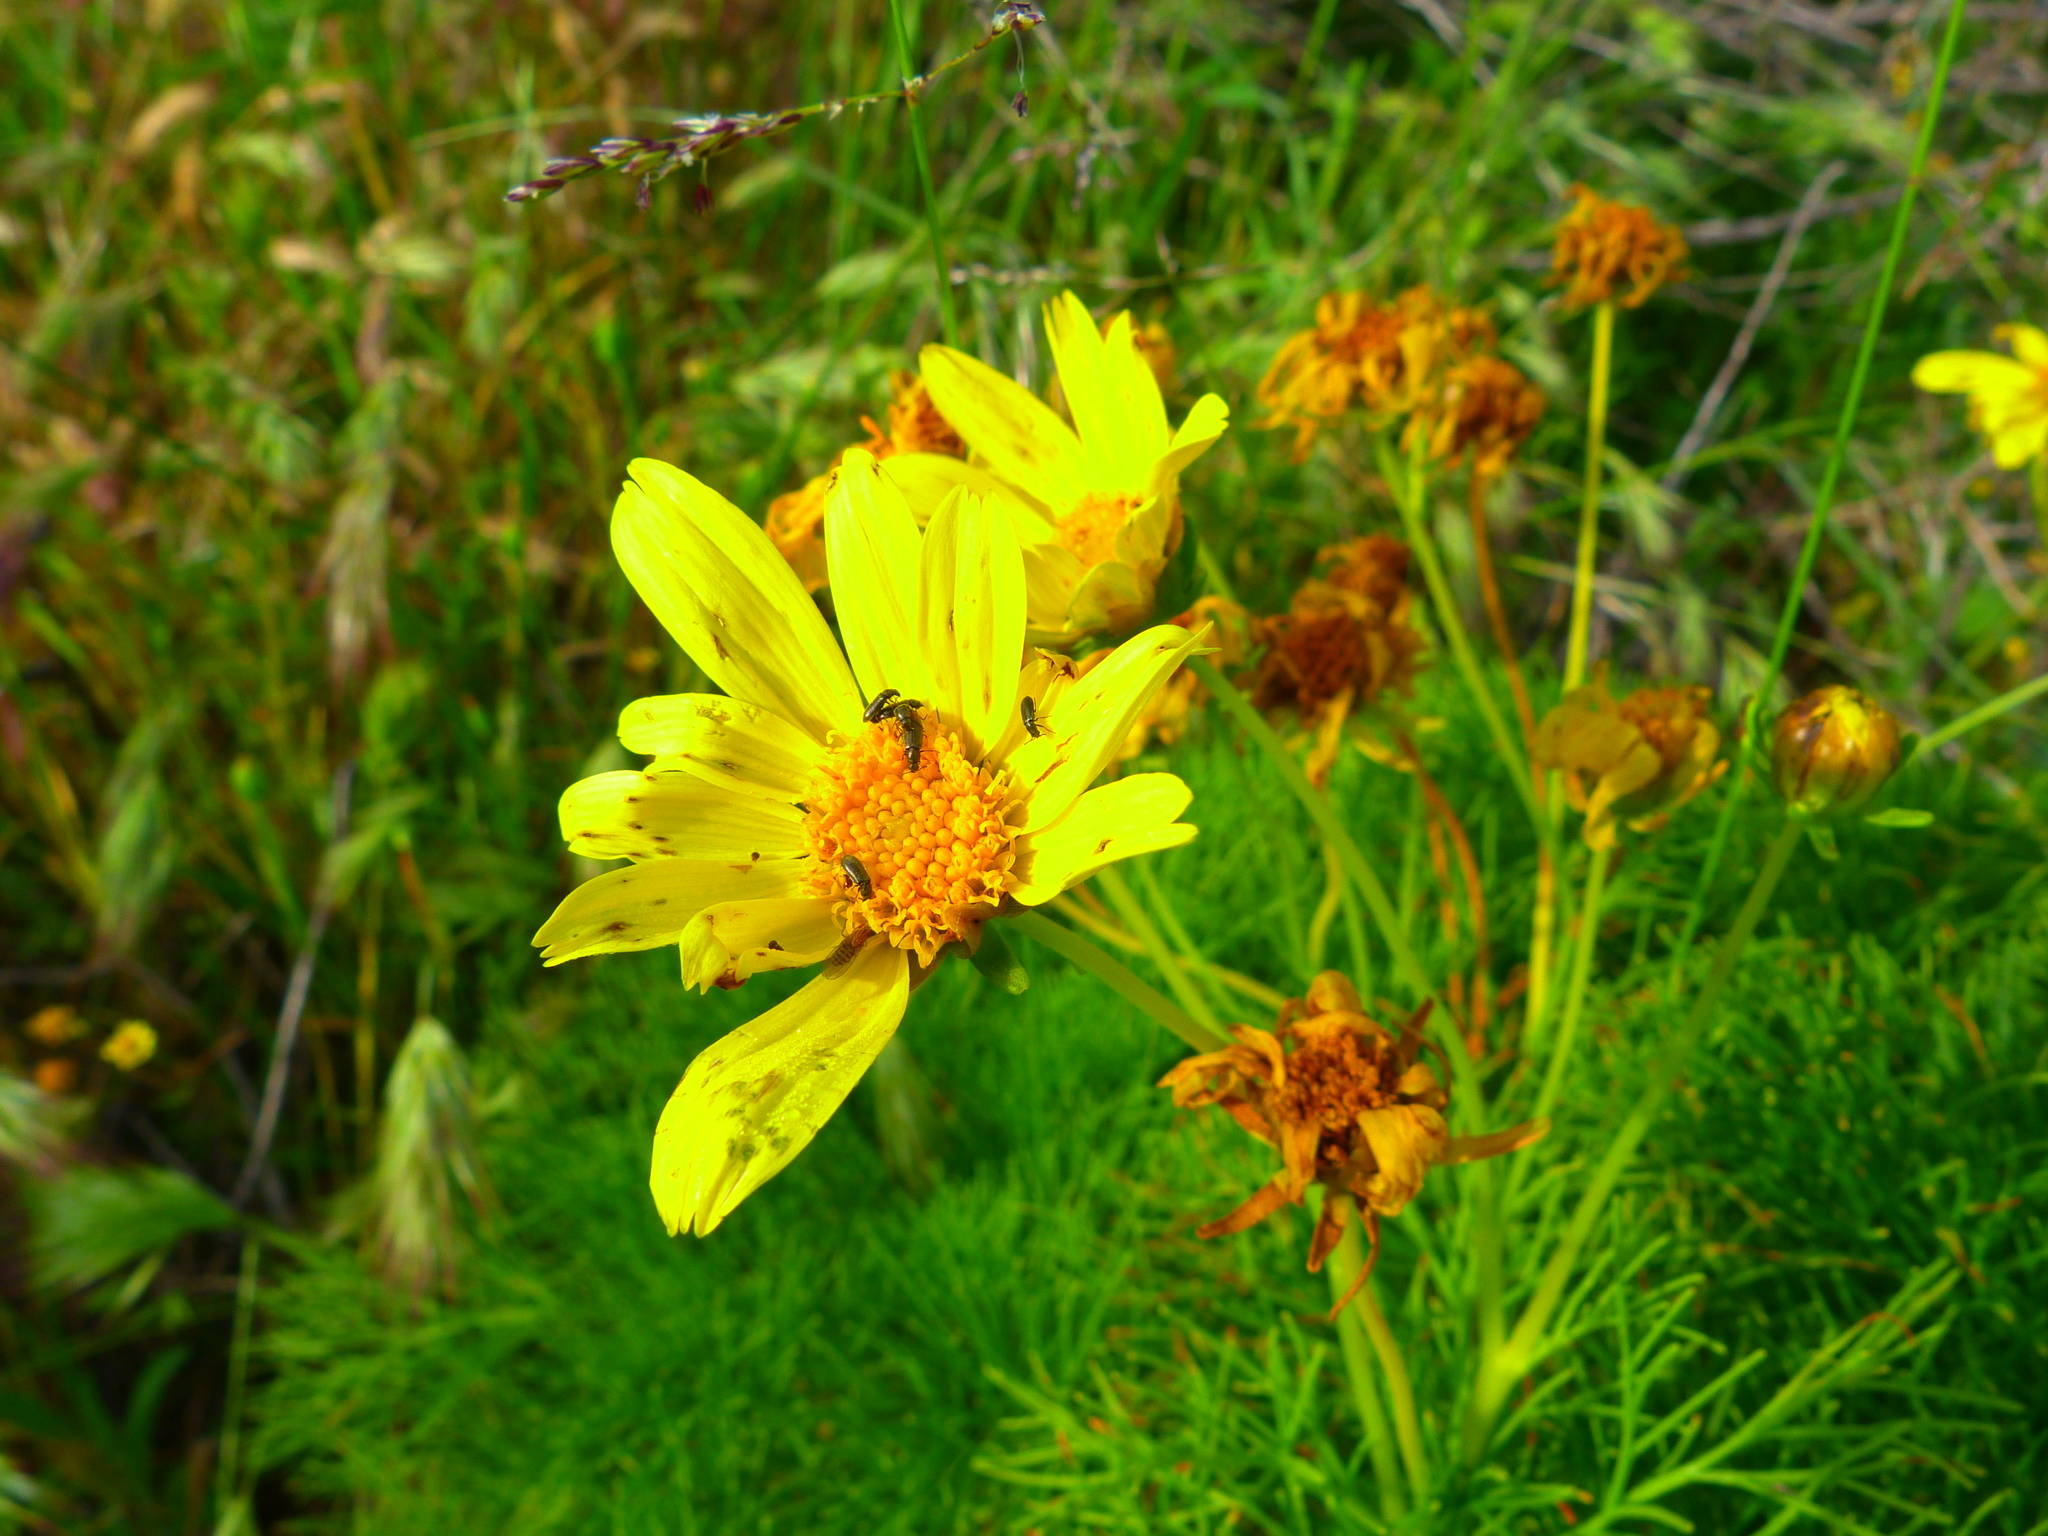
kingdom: Plantae
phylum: Tracheophyta
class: Magnoliopsida
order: Asterales
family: Asteraceae
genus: Coreopsis
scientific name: Coreopsis gigantea
